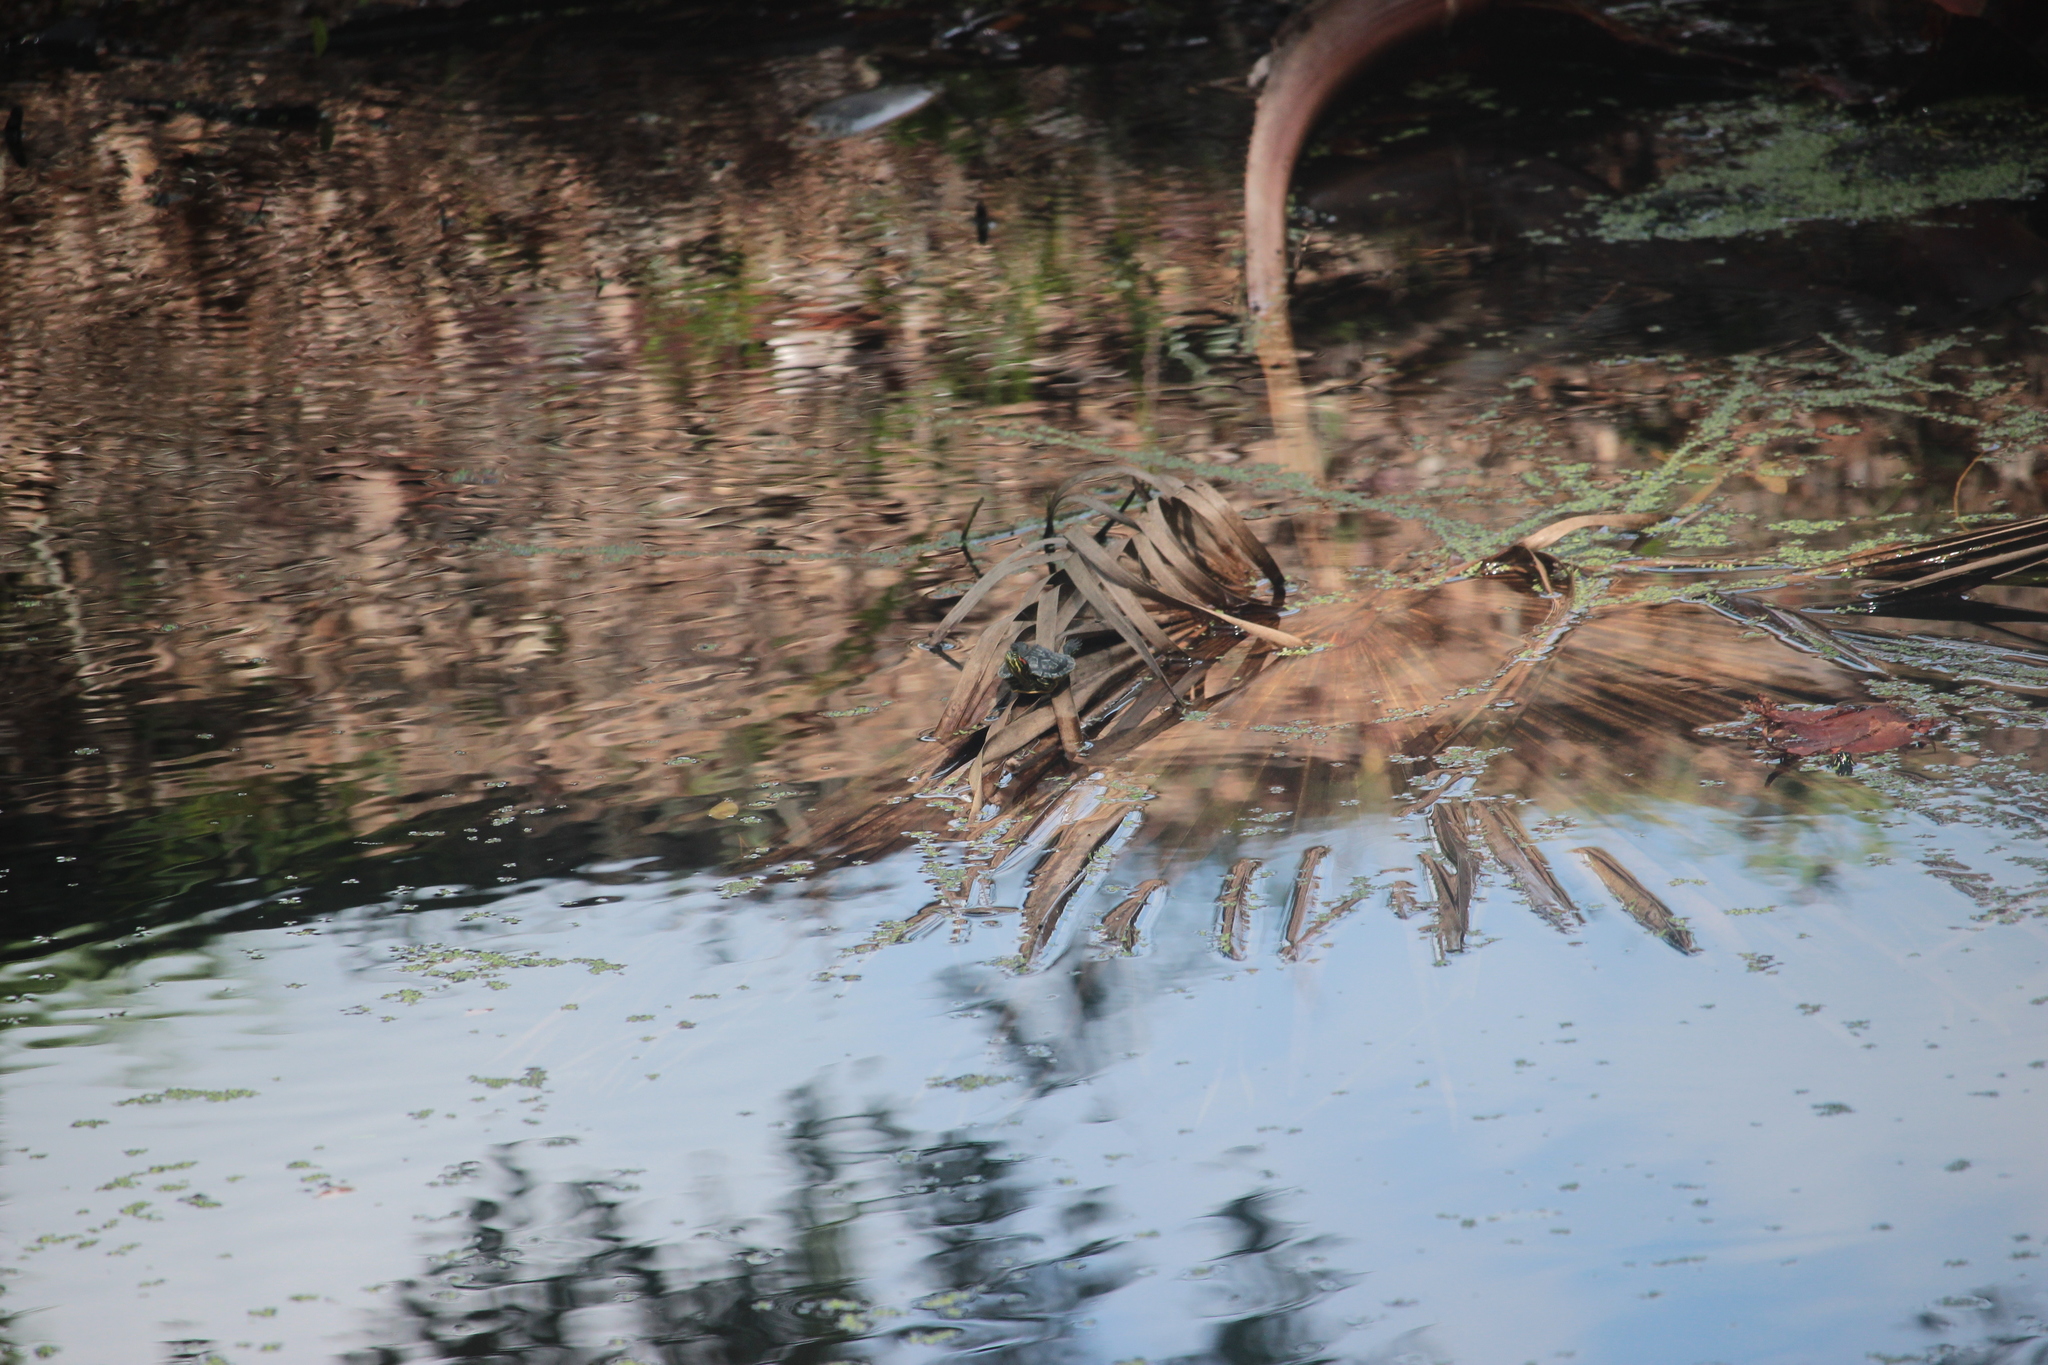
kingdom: Animalia
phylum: Chordata
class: Testudines
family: Emydidae
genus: Trachemys
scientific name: Trachemys scripta
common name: Slider
